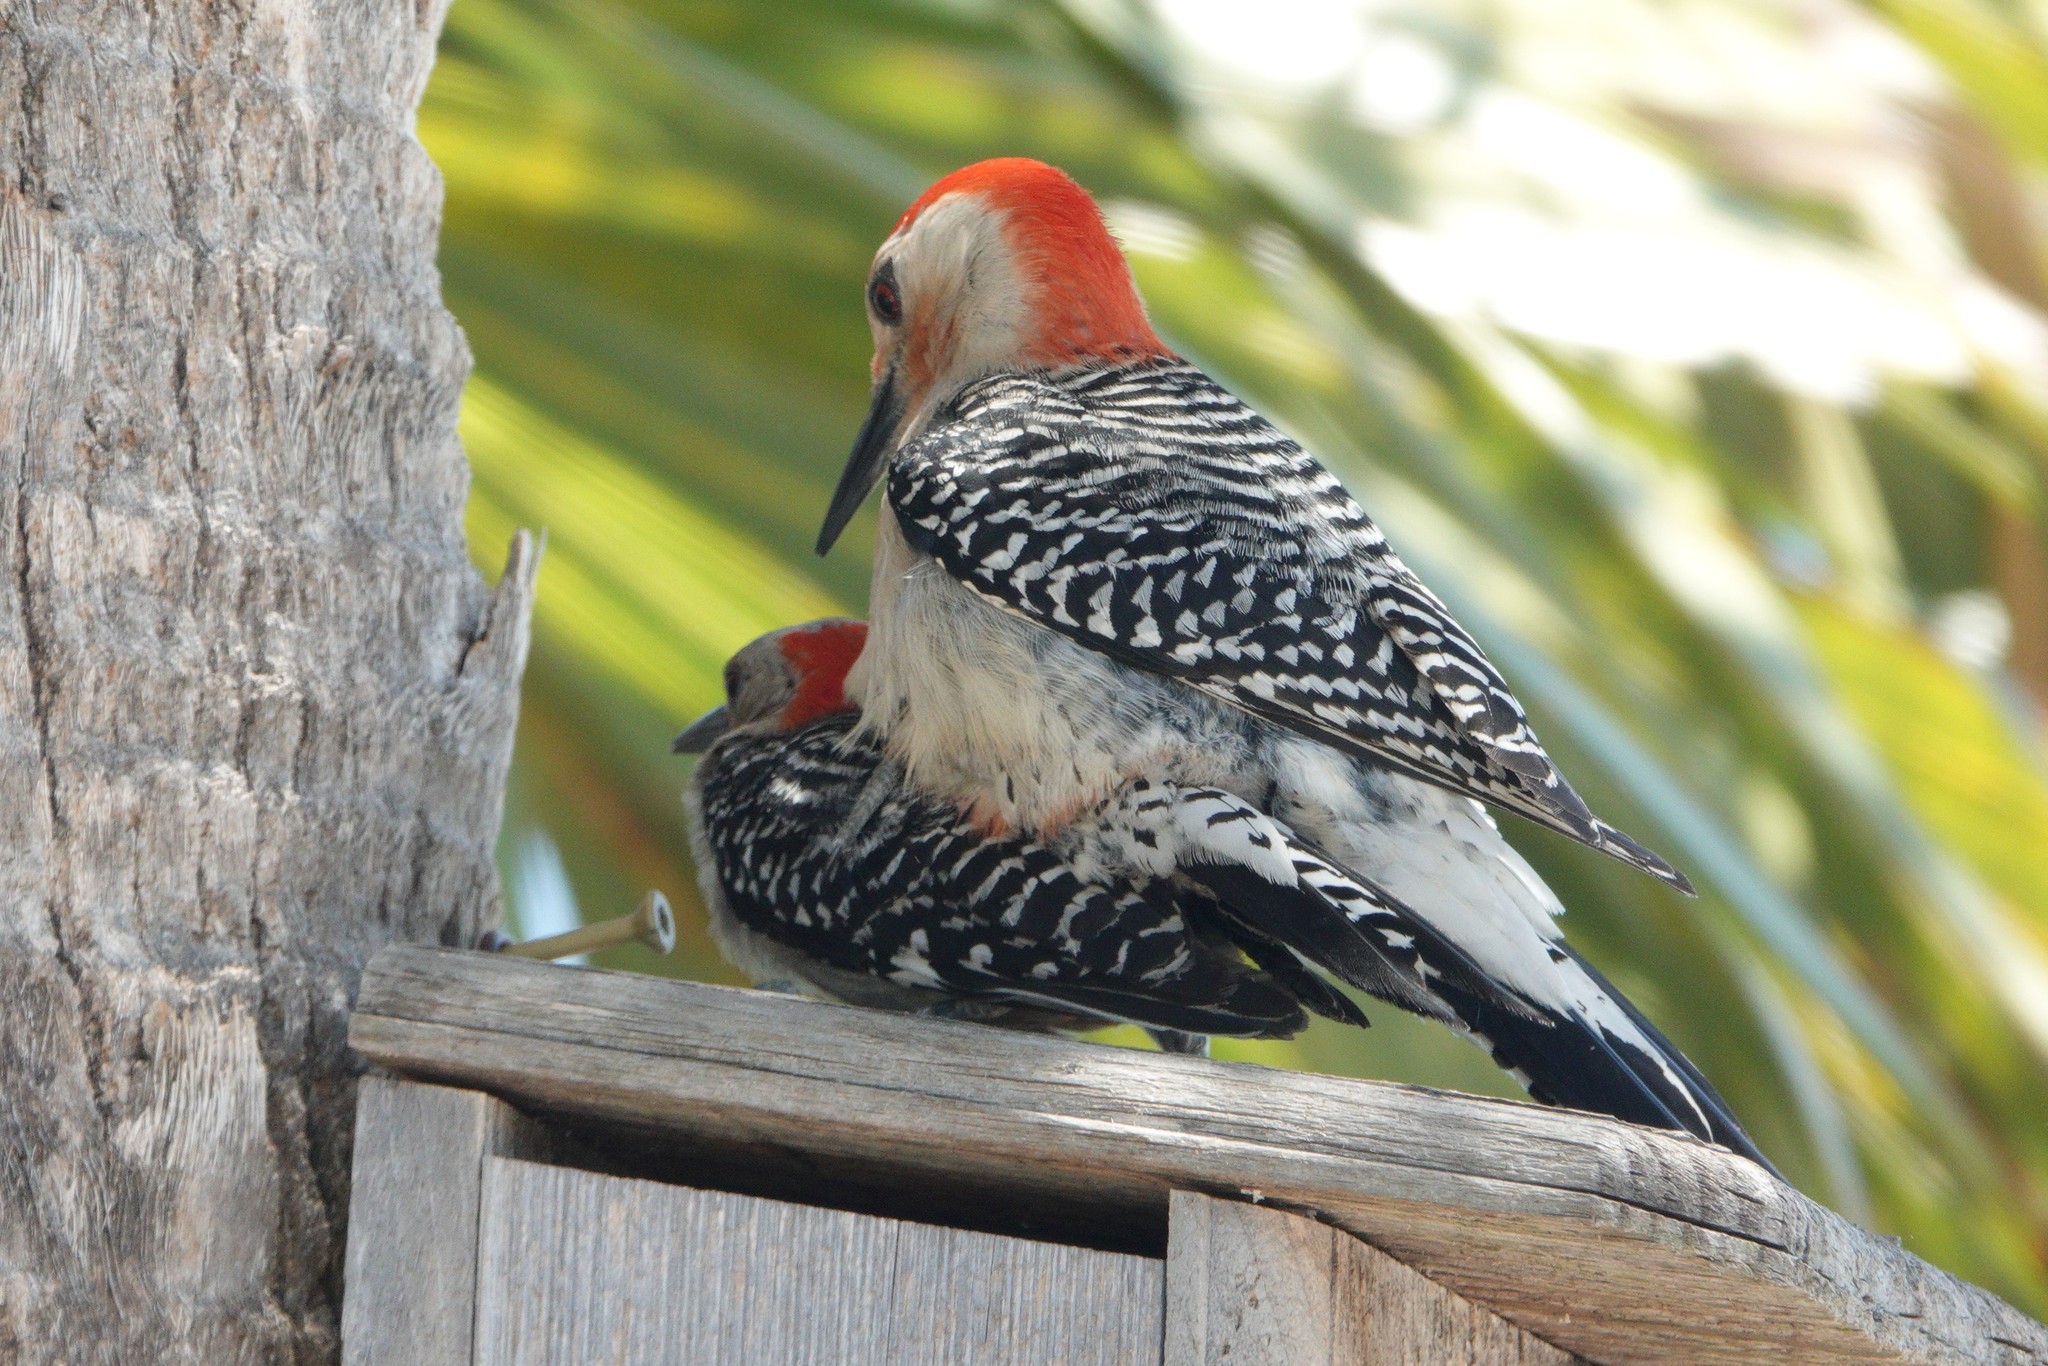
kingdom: Animalia
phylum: Chordata
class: Aves
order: Piciformes
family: Picidae
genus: Melanerpes
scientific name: Melanerpes carolinus
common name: Red-bellied woodpecker
